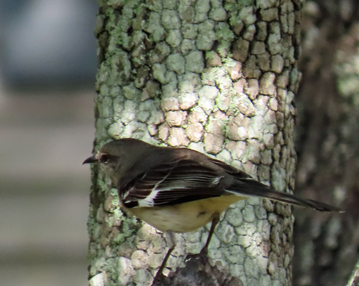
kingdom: Animalia
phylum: Chordata
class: Aves
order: Passeriformes
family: Mimidae
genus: Mimus
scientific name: Mimus polyglottos
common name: Northern mockingbird
